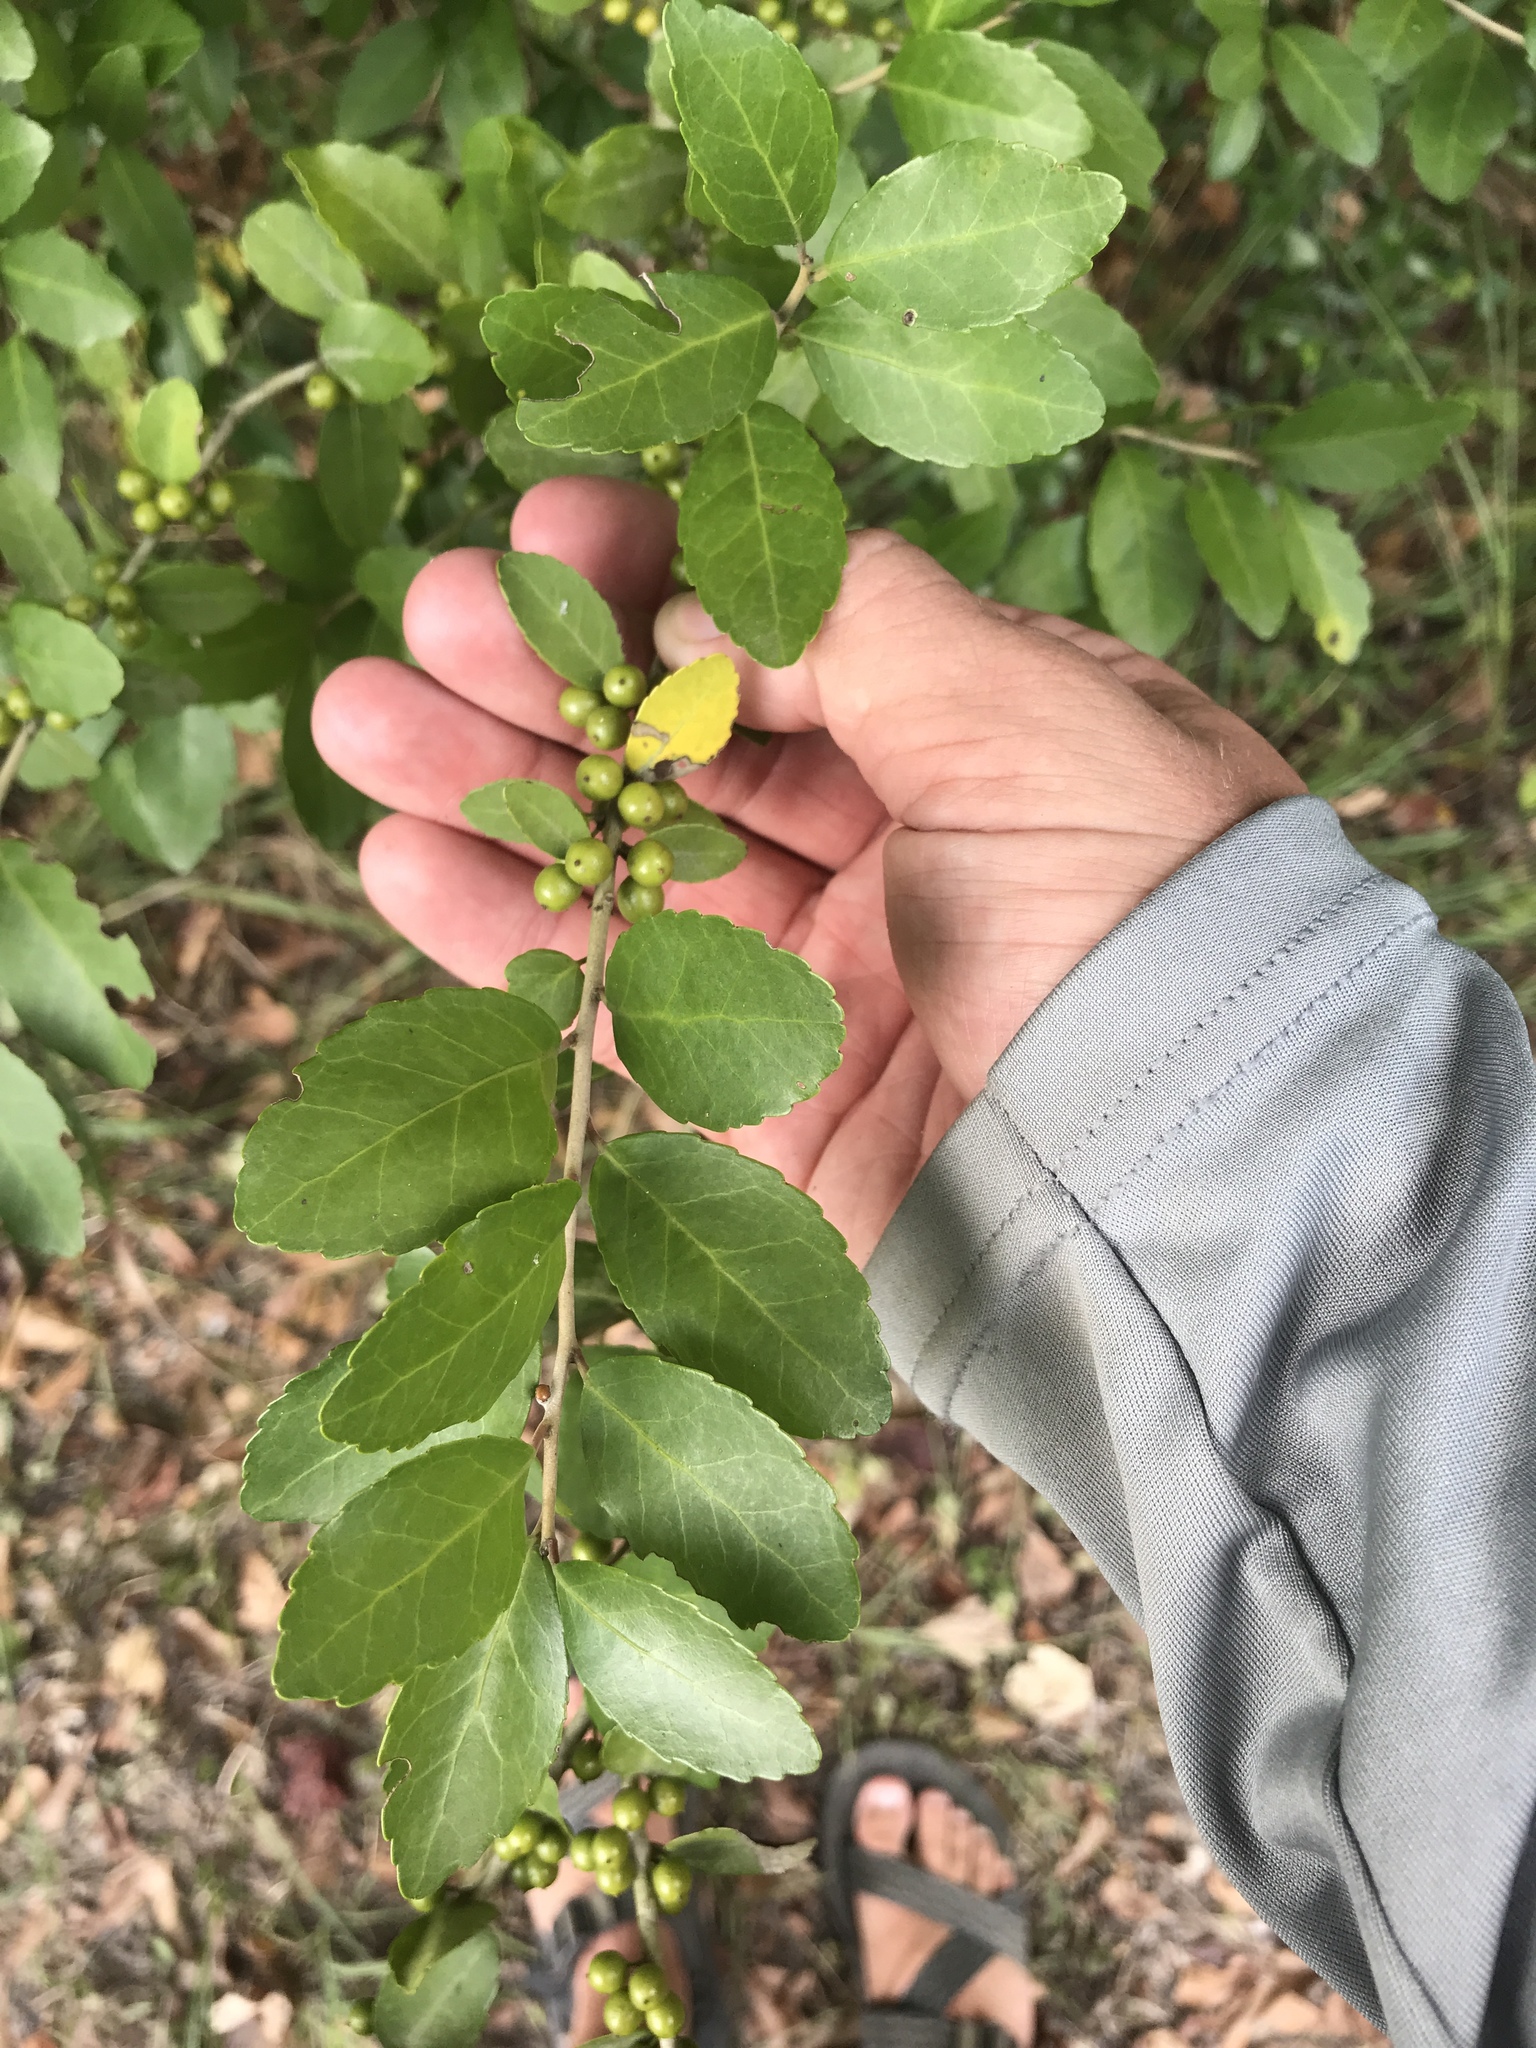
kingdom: Plantae
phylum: Tracheophyta
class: Magnoliopsida
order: Aquifoliales
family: Aquifoliaceae
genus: Ilex
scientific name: Ilex vomitoria
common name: Yaupon holly
